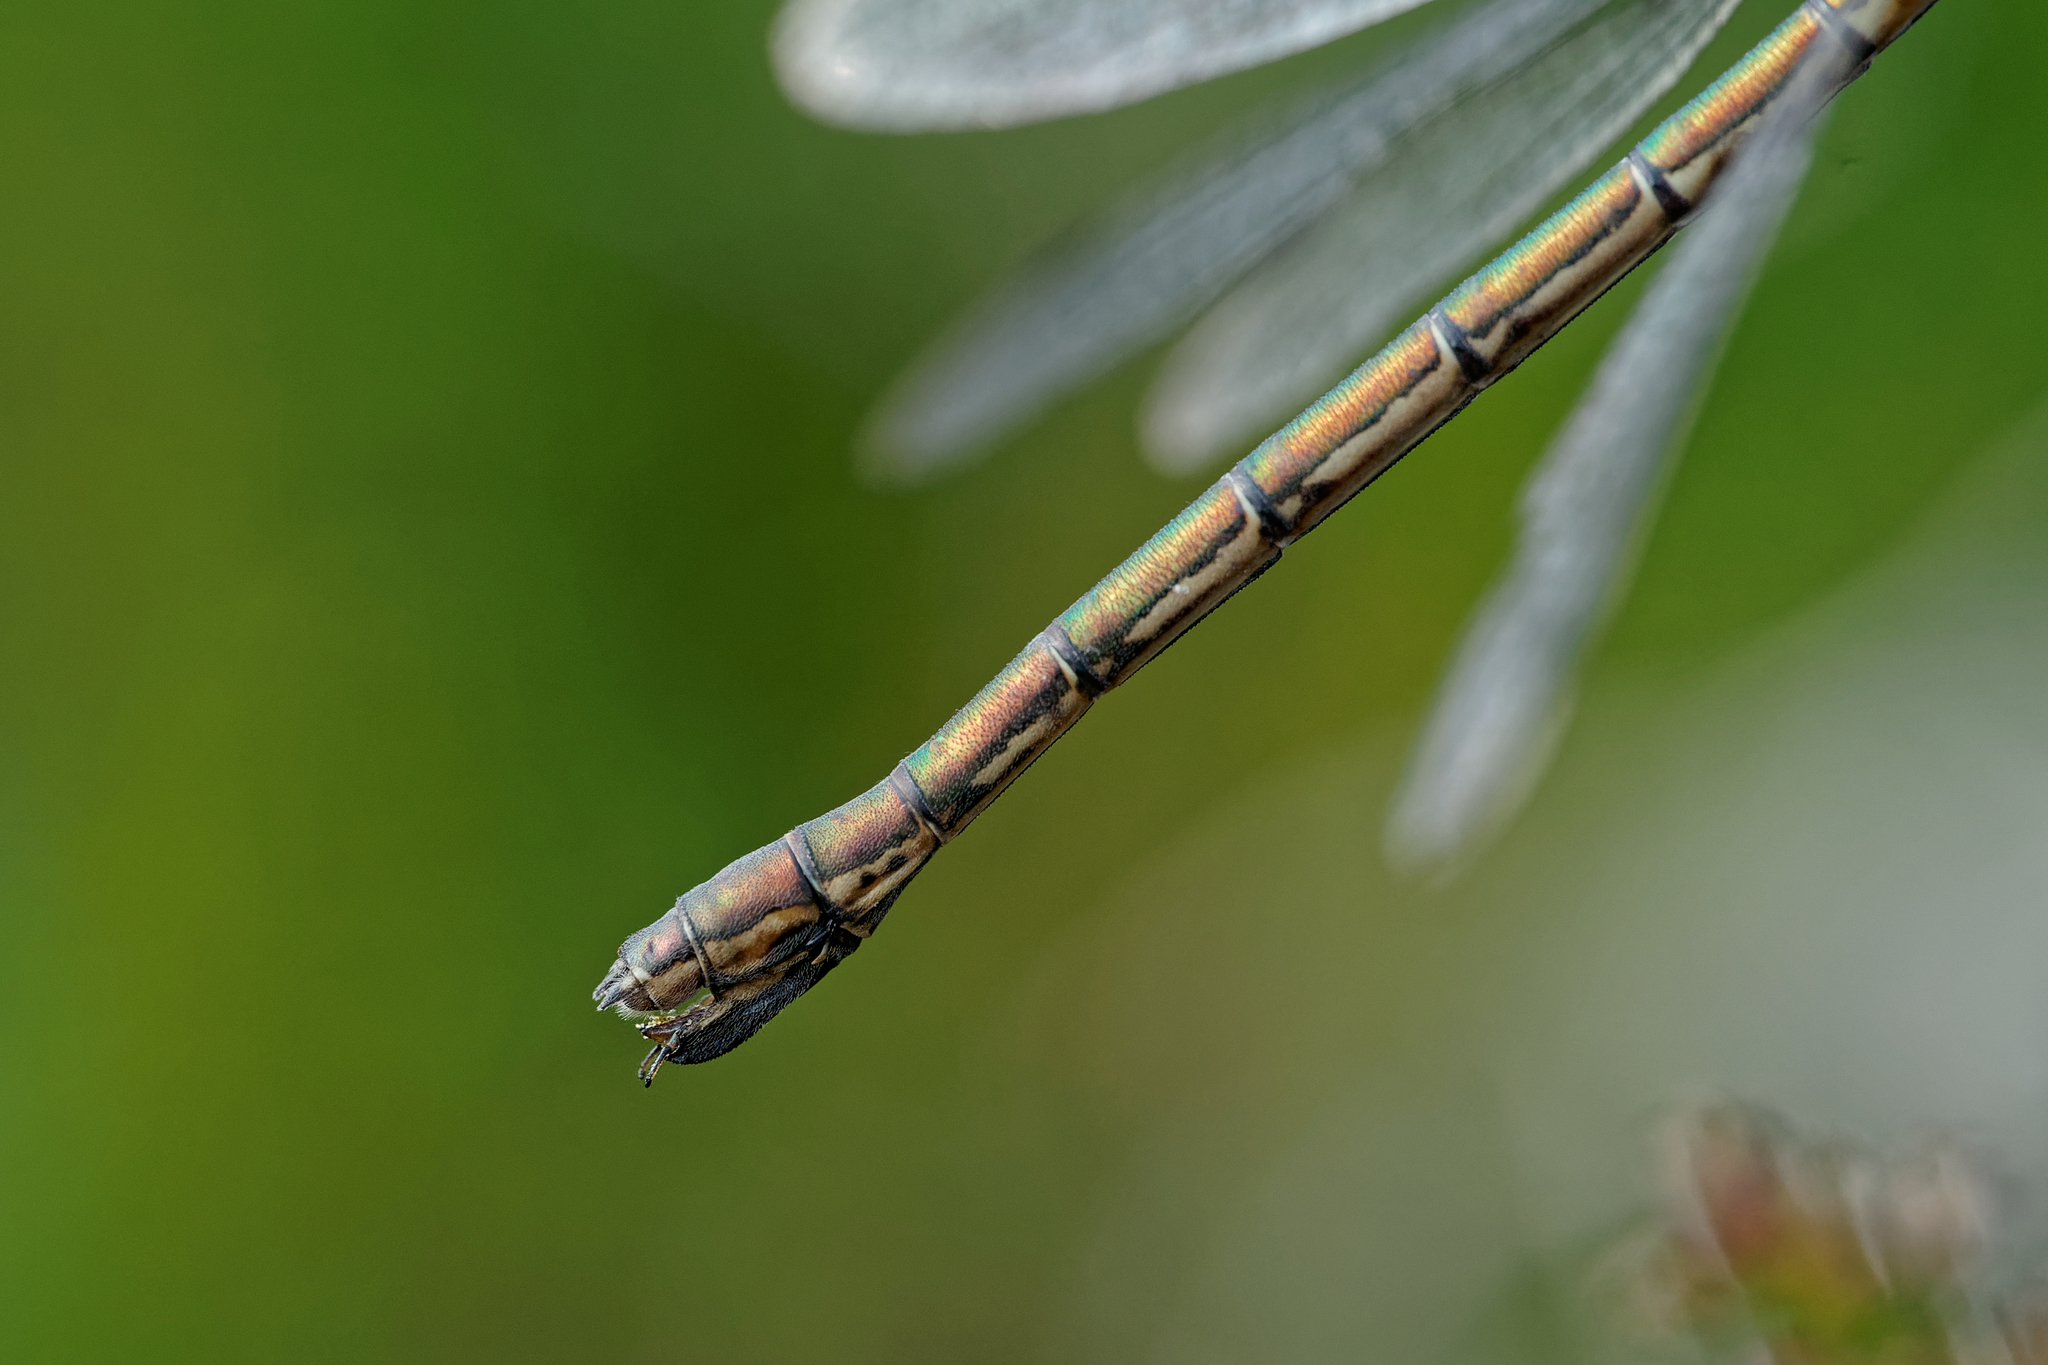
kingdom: Animalia
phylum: Arthropoda
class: Insecta
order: Odonata
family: Lestidae
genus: Lestes
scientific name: Lestes dryas
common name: Scarce emerald damselfly
